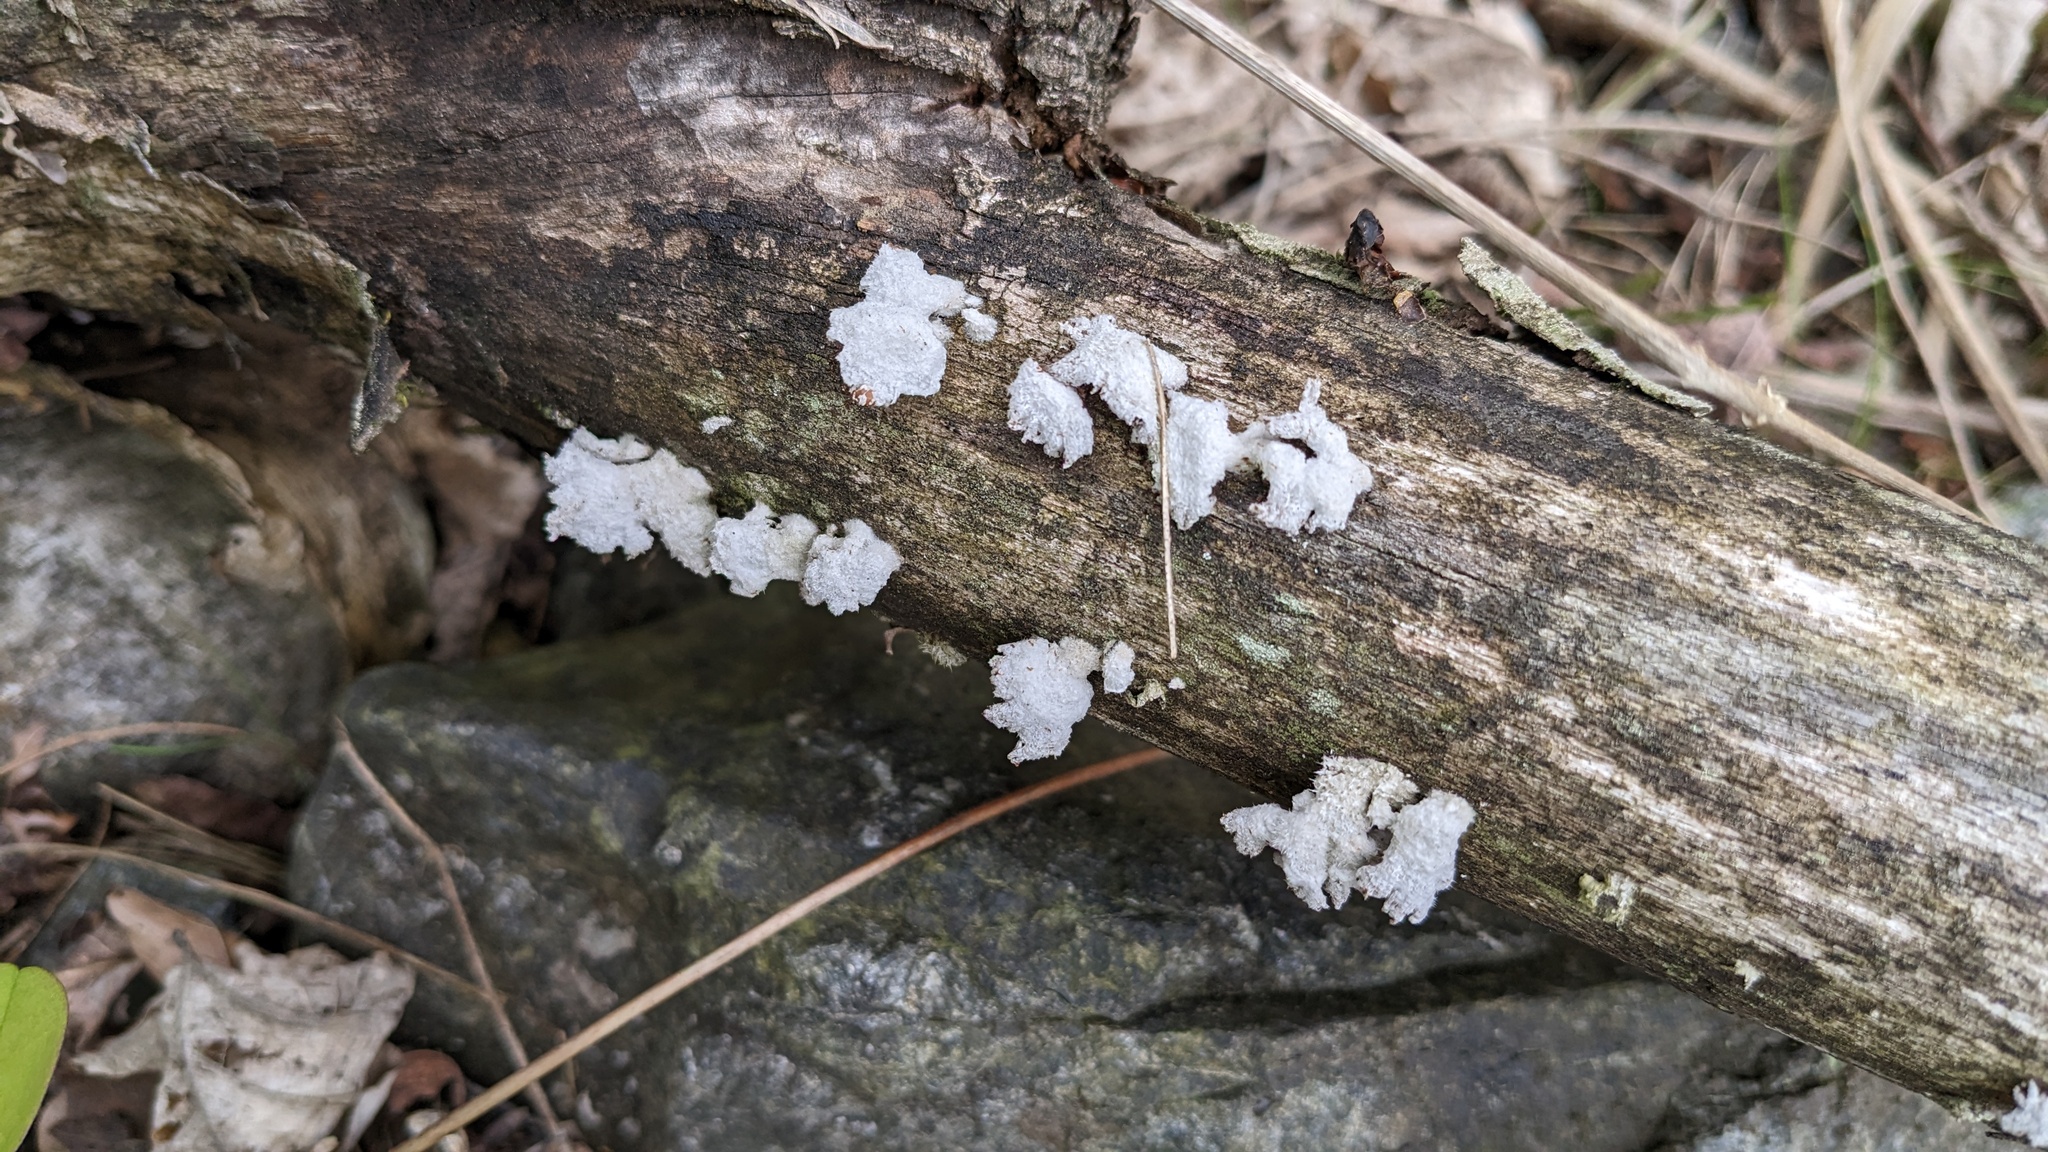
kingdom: Fungi
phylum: Basidiomycota
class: Agaricomycetes
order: Agaricales
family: Schizophyllaceae
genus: Schizophyllum
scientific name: Schizophyllum commune
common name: Common porecrust
